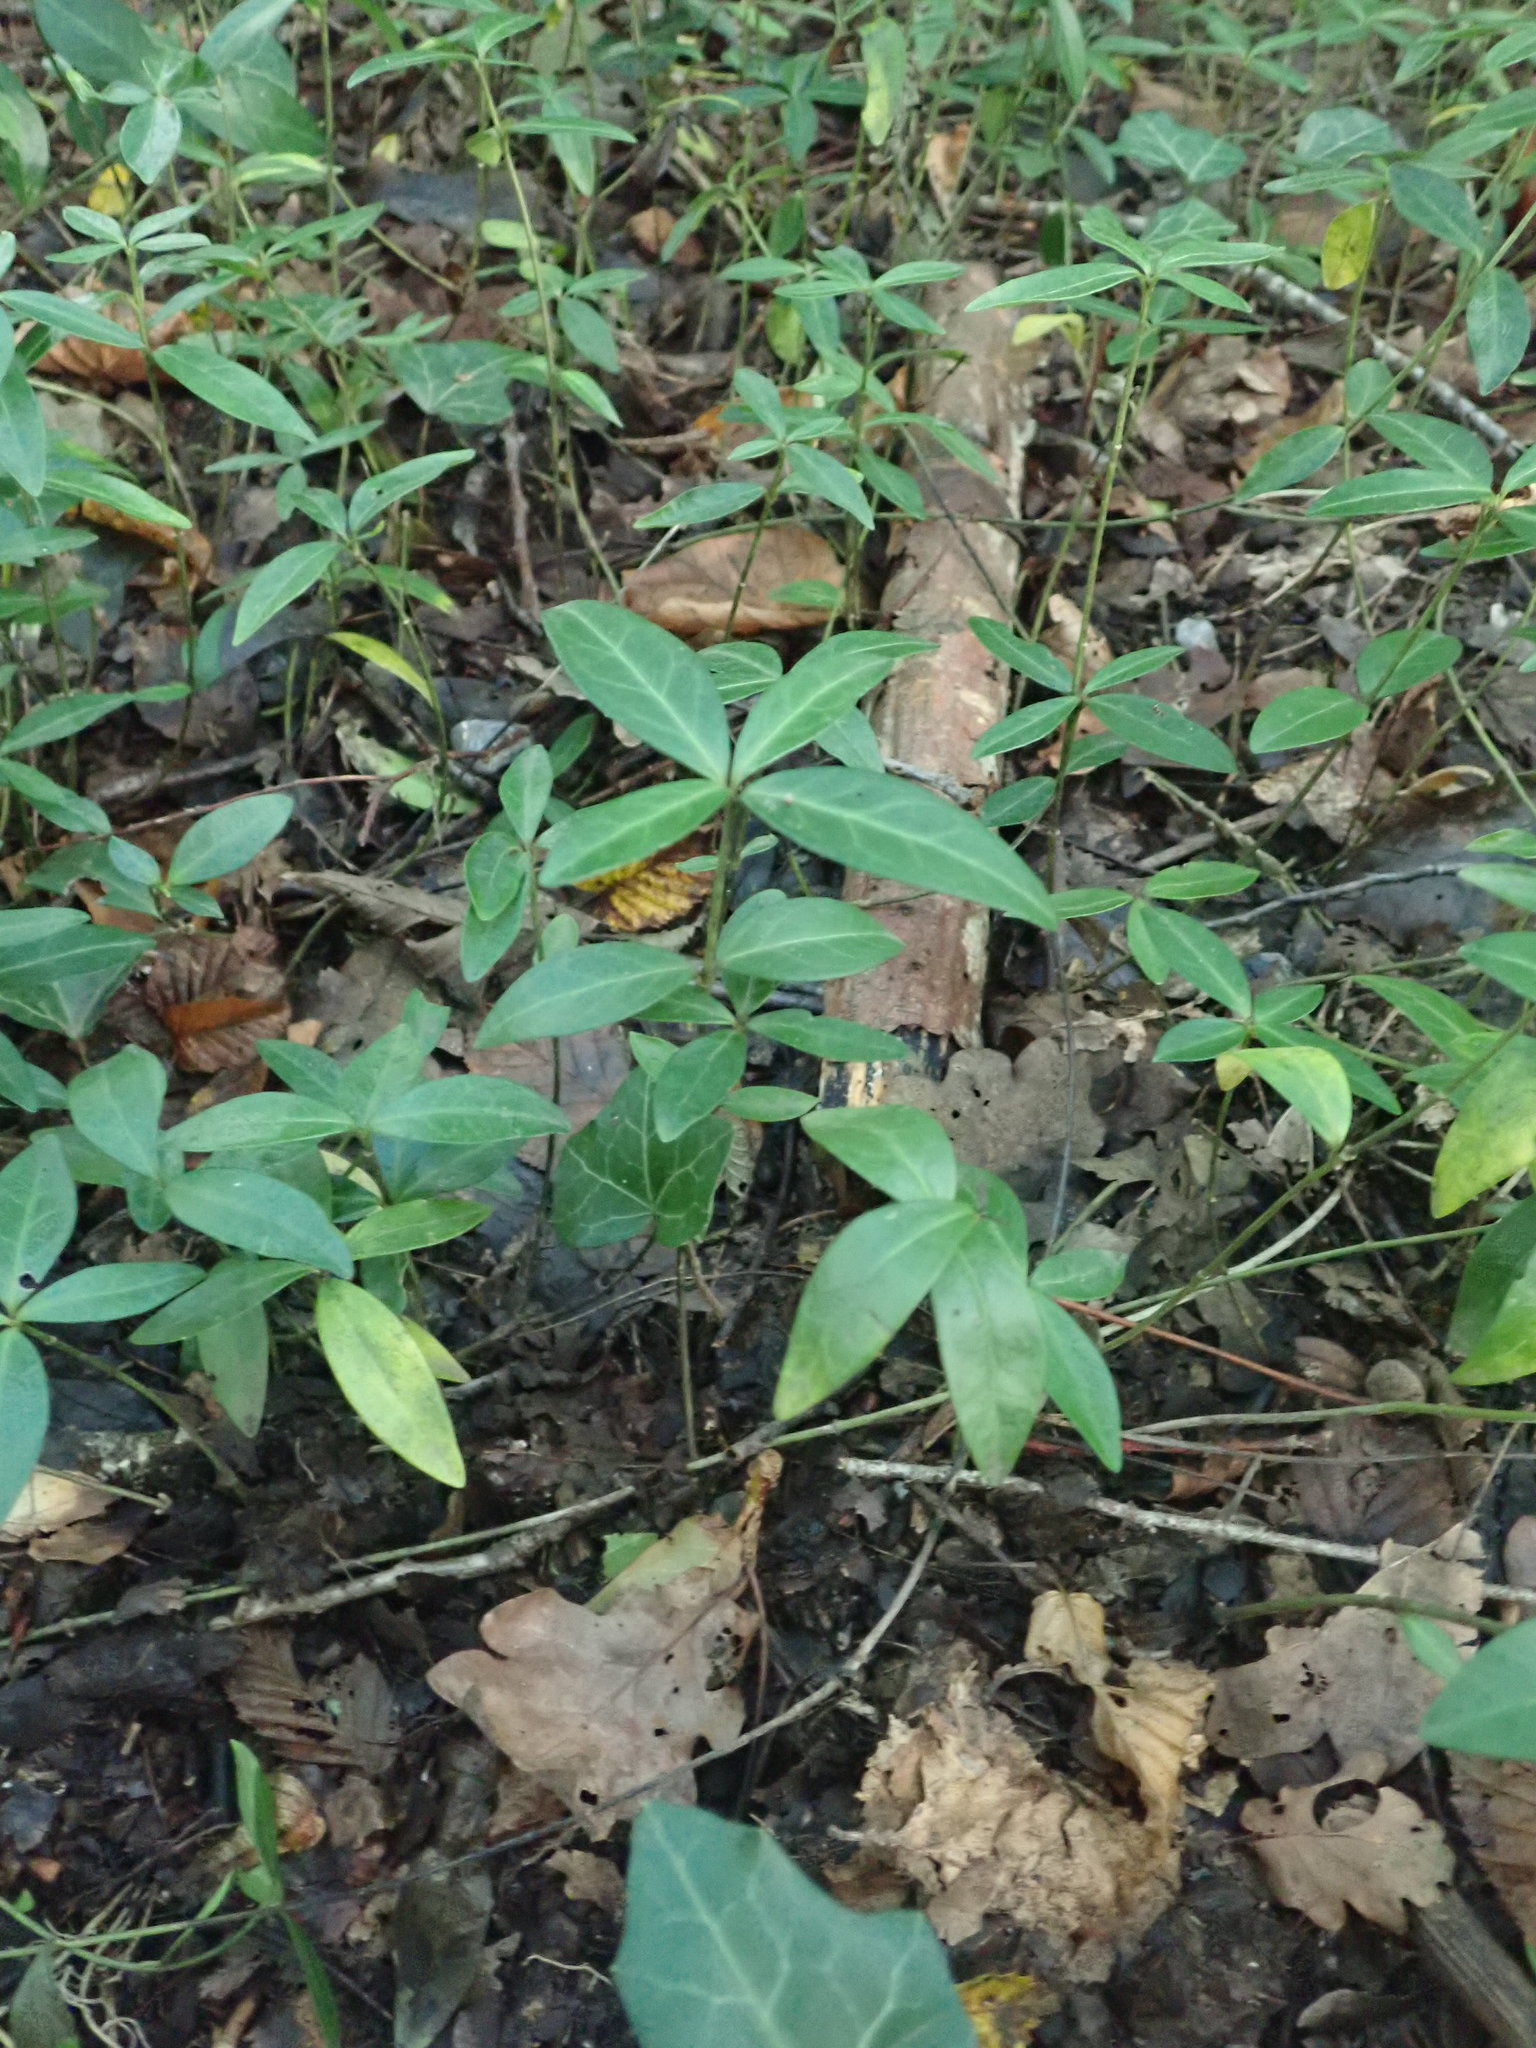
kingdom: Plantae
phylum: Tracheophyta
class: Magnoliopsida
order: Gentianales
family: Apocynaceae
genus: Vinca
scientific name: Vinca minor
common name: Lesser periwinkle
